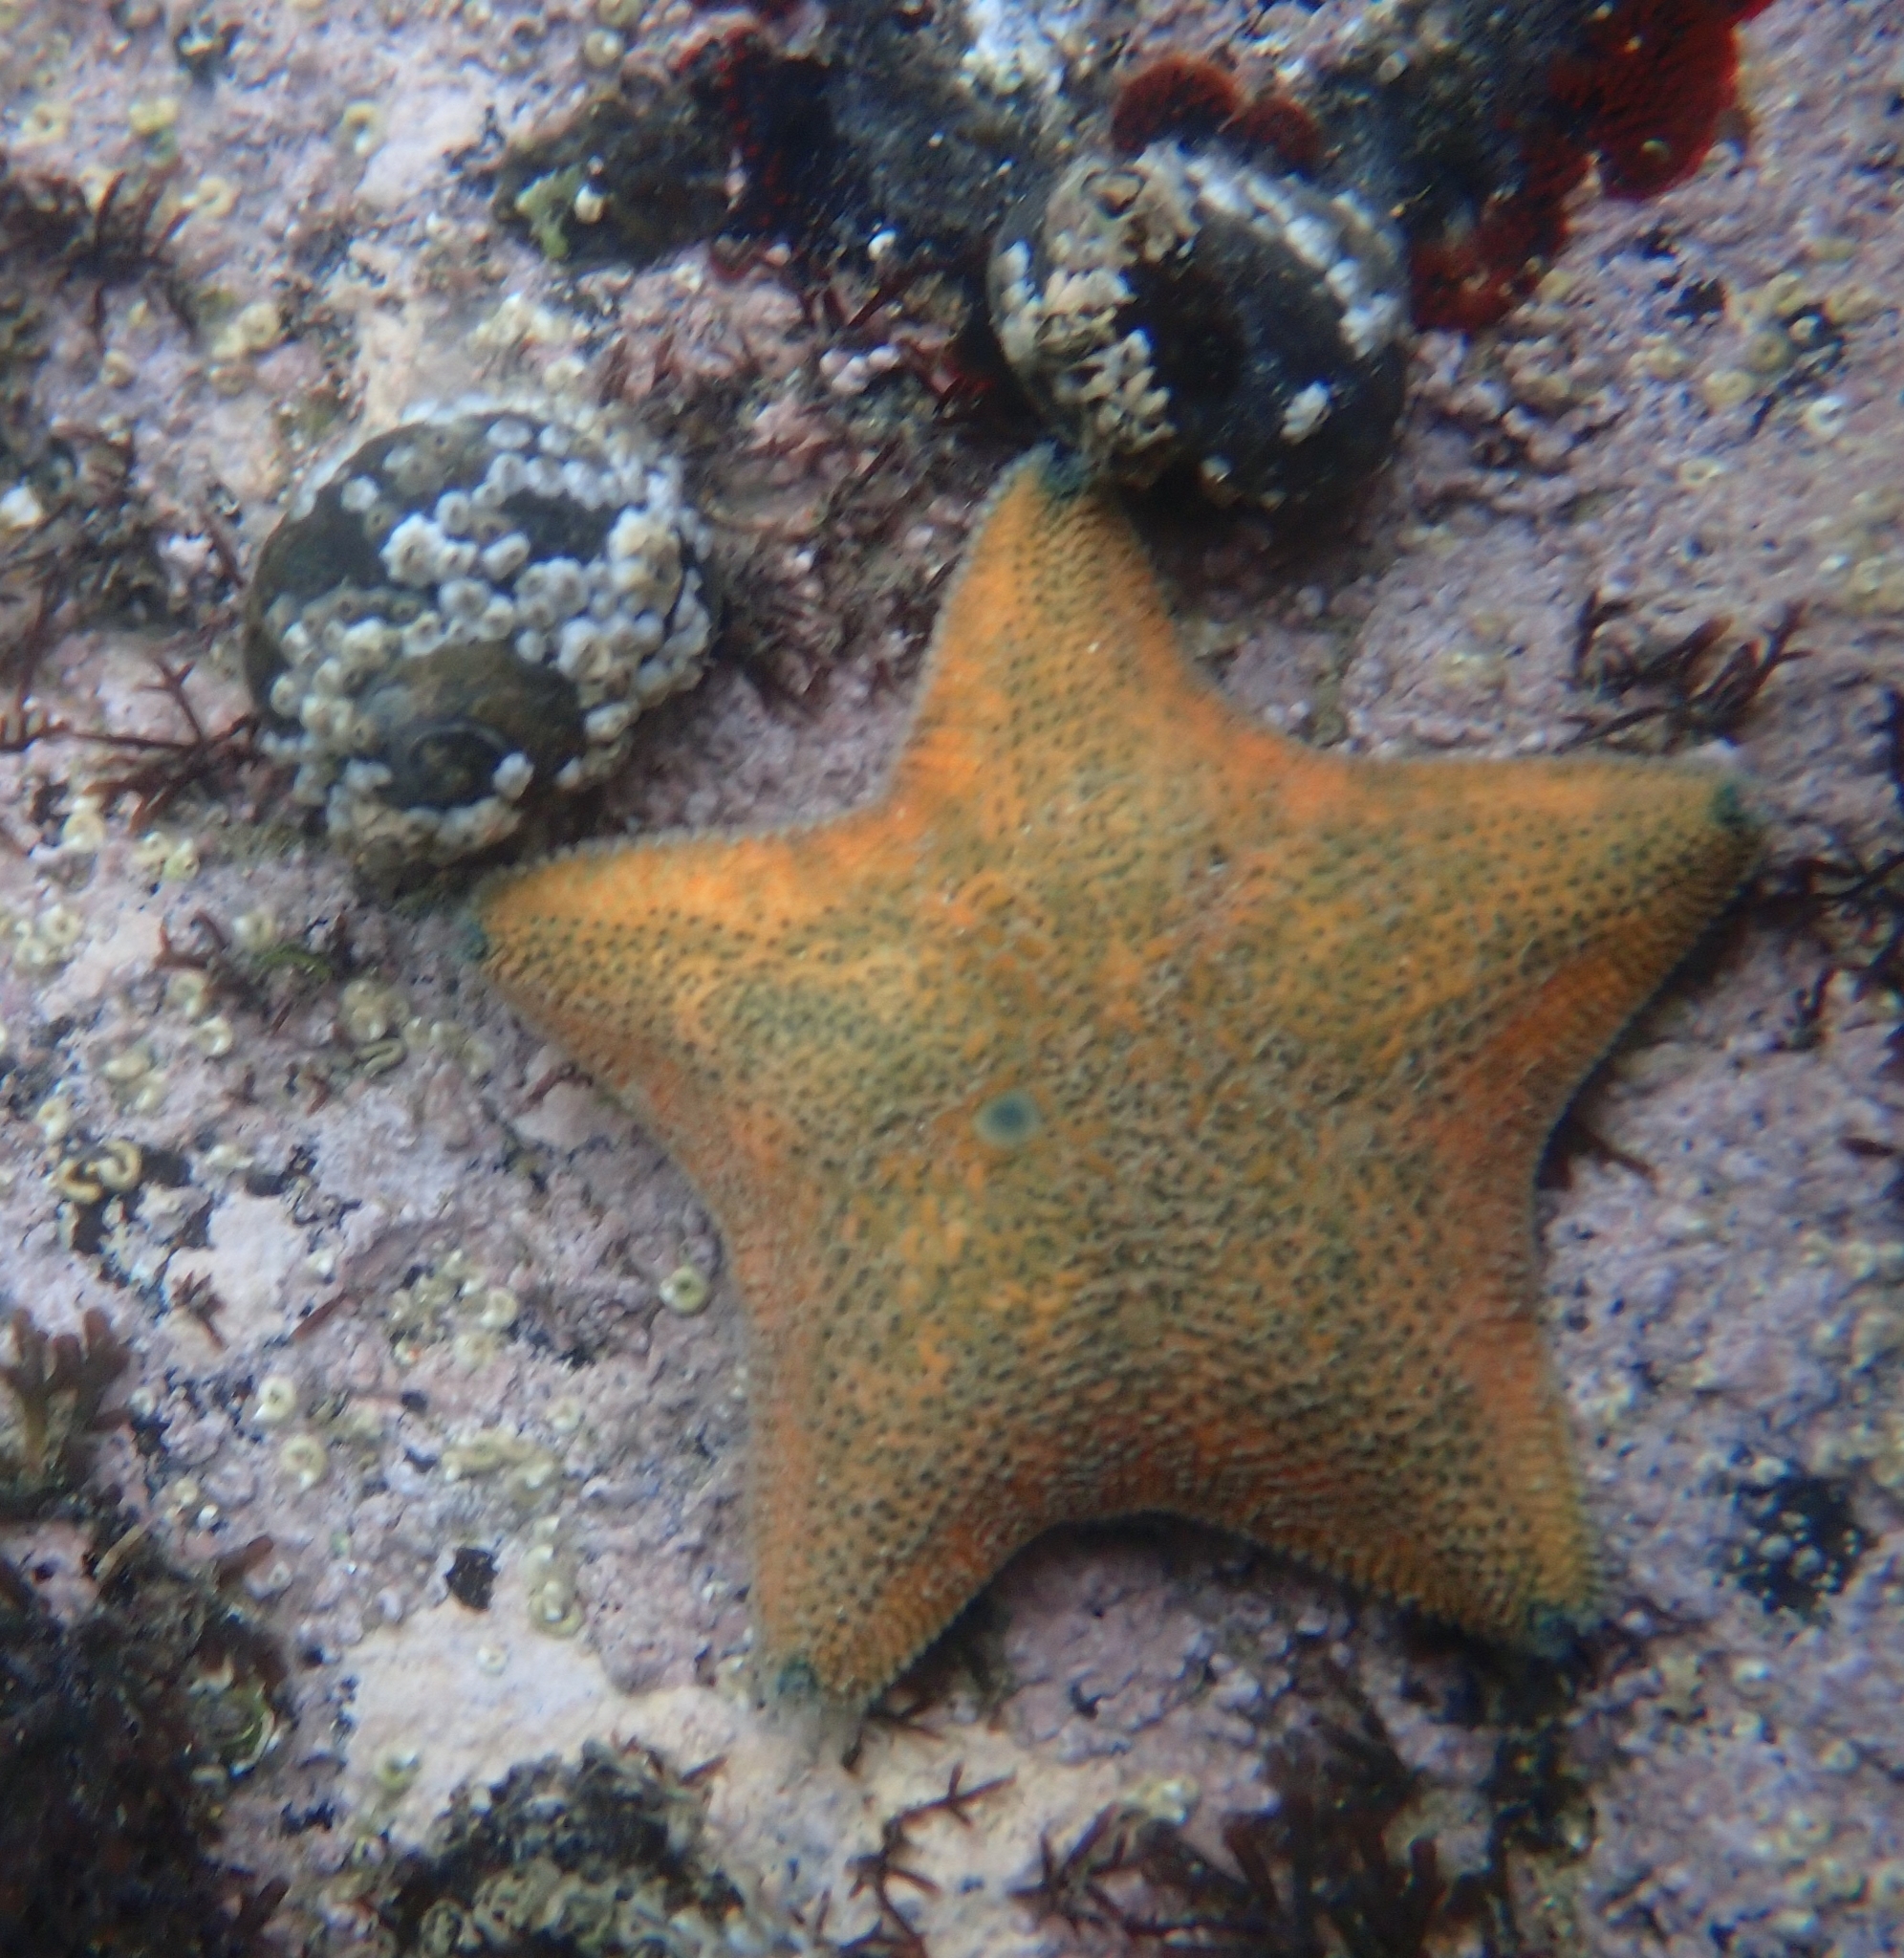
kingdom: Animalia
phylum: Echinodermata
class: Asteroidea
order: Valvatida
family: Asterinidae
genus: Patiriella
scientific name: Patiriella regularis
